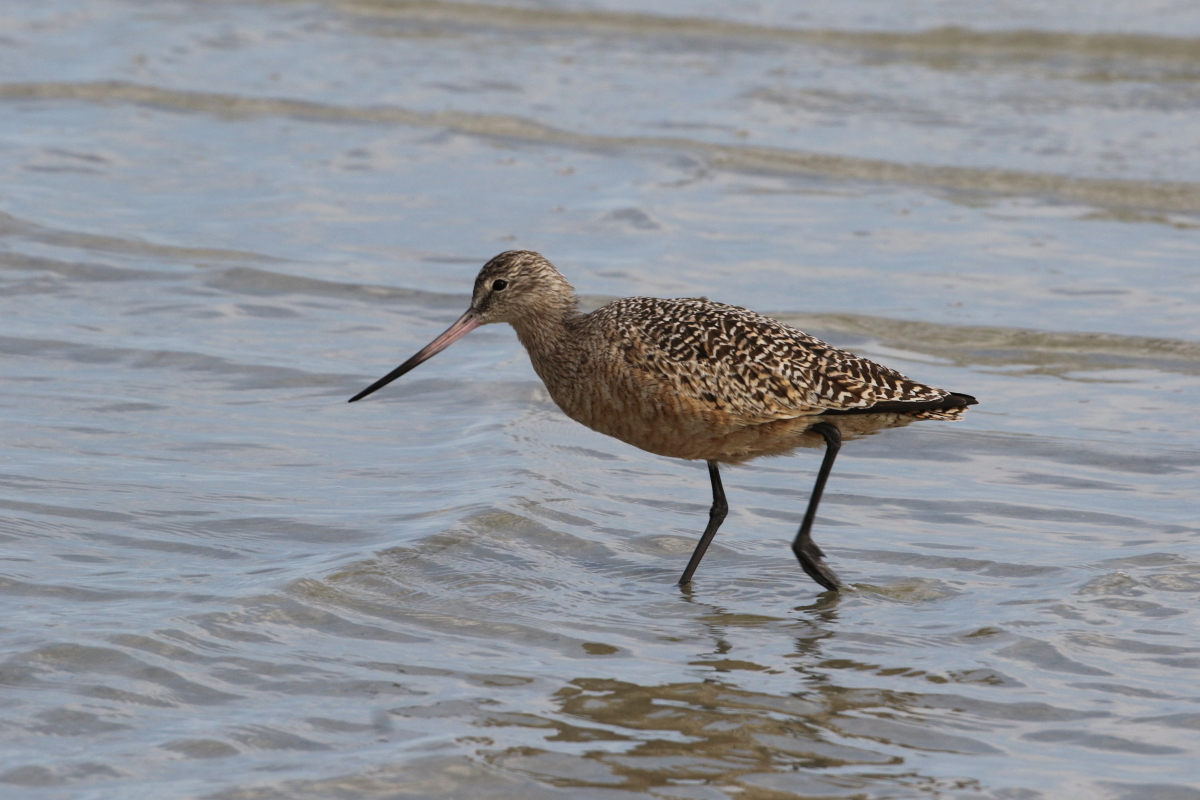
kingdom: Animalia
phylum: Chordata
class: Aves
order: Charadriiformes
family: Scolopacidae
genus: Limosa
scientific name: Limosa fedoa
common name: Marbled godwit
